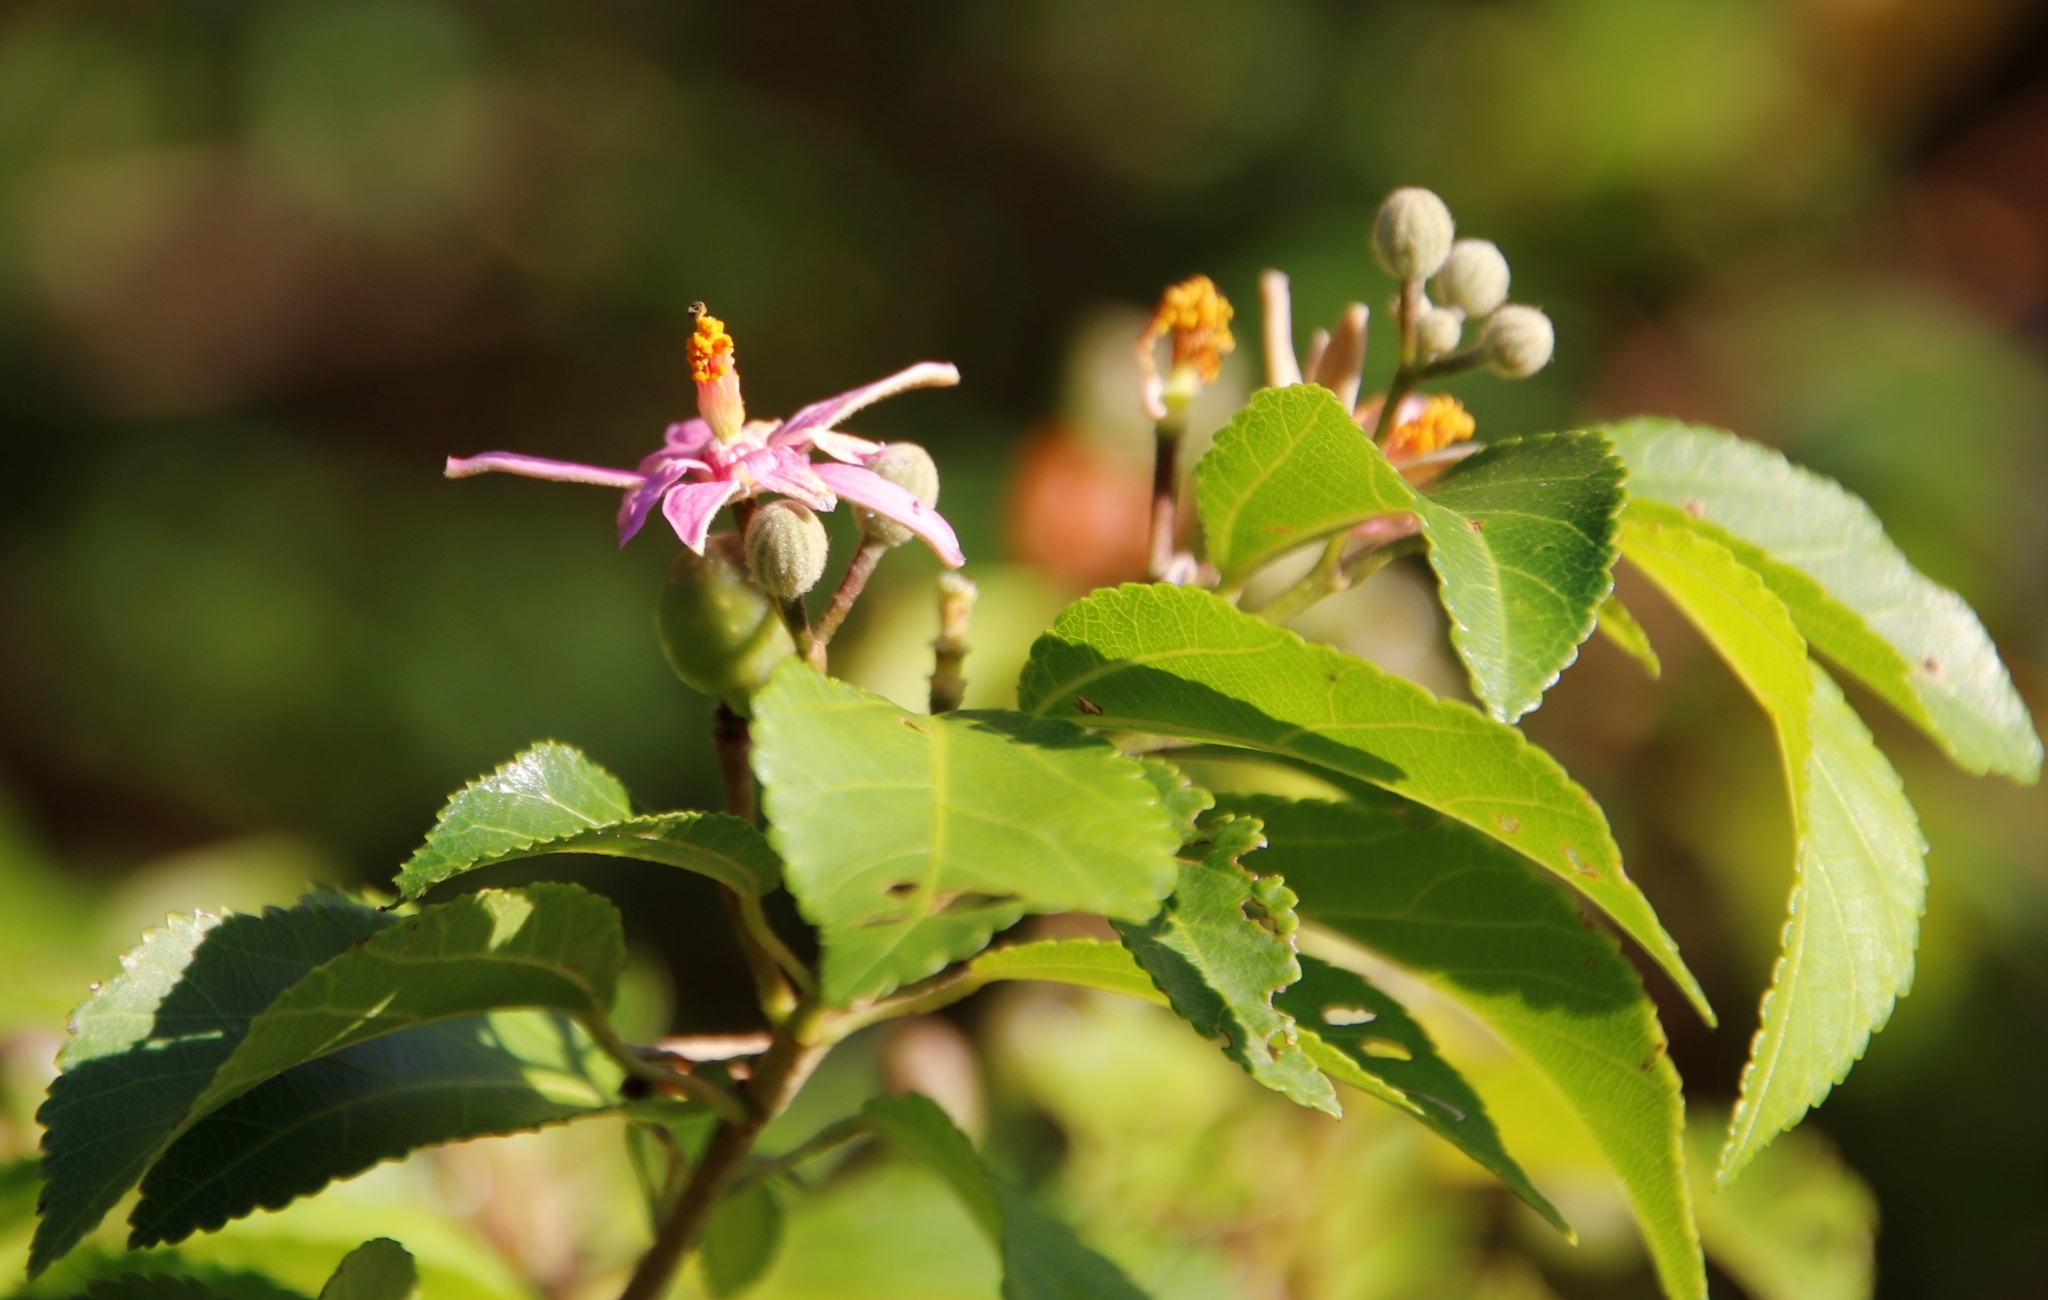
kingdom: Plantae
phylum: Tracheophyta
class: Magnoliopsida
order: Malvales
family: Malvaceae
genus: Grewia
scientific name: Grewia occidentalis
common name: Crossberry
